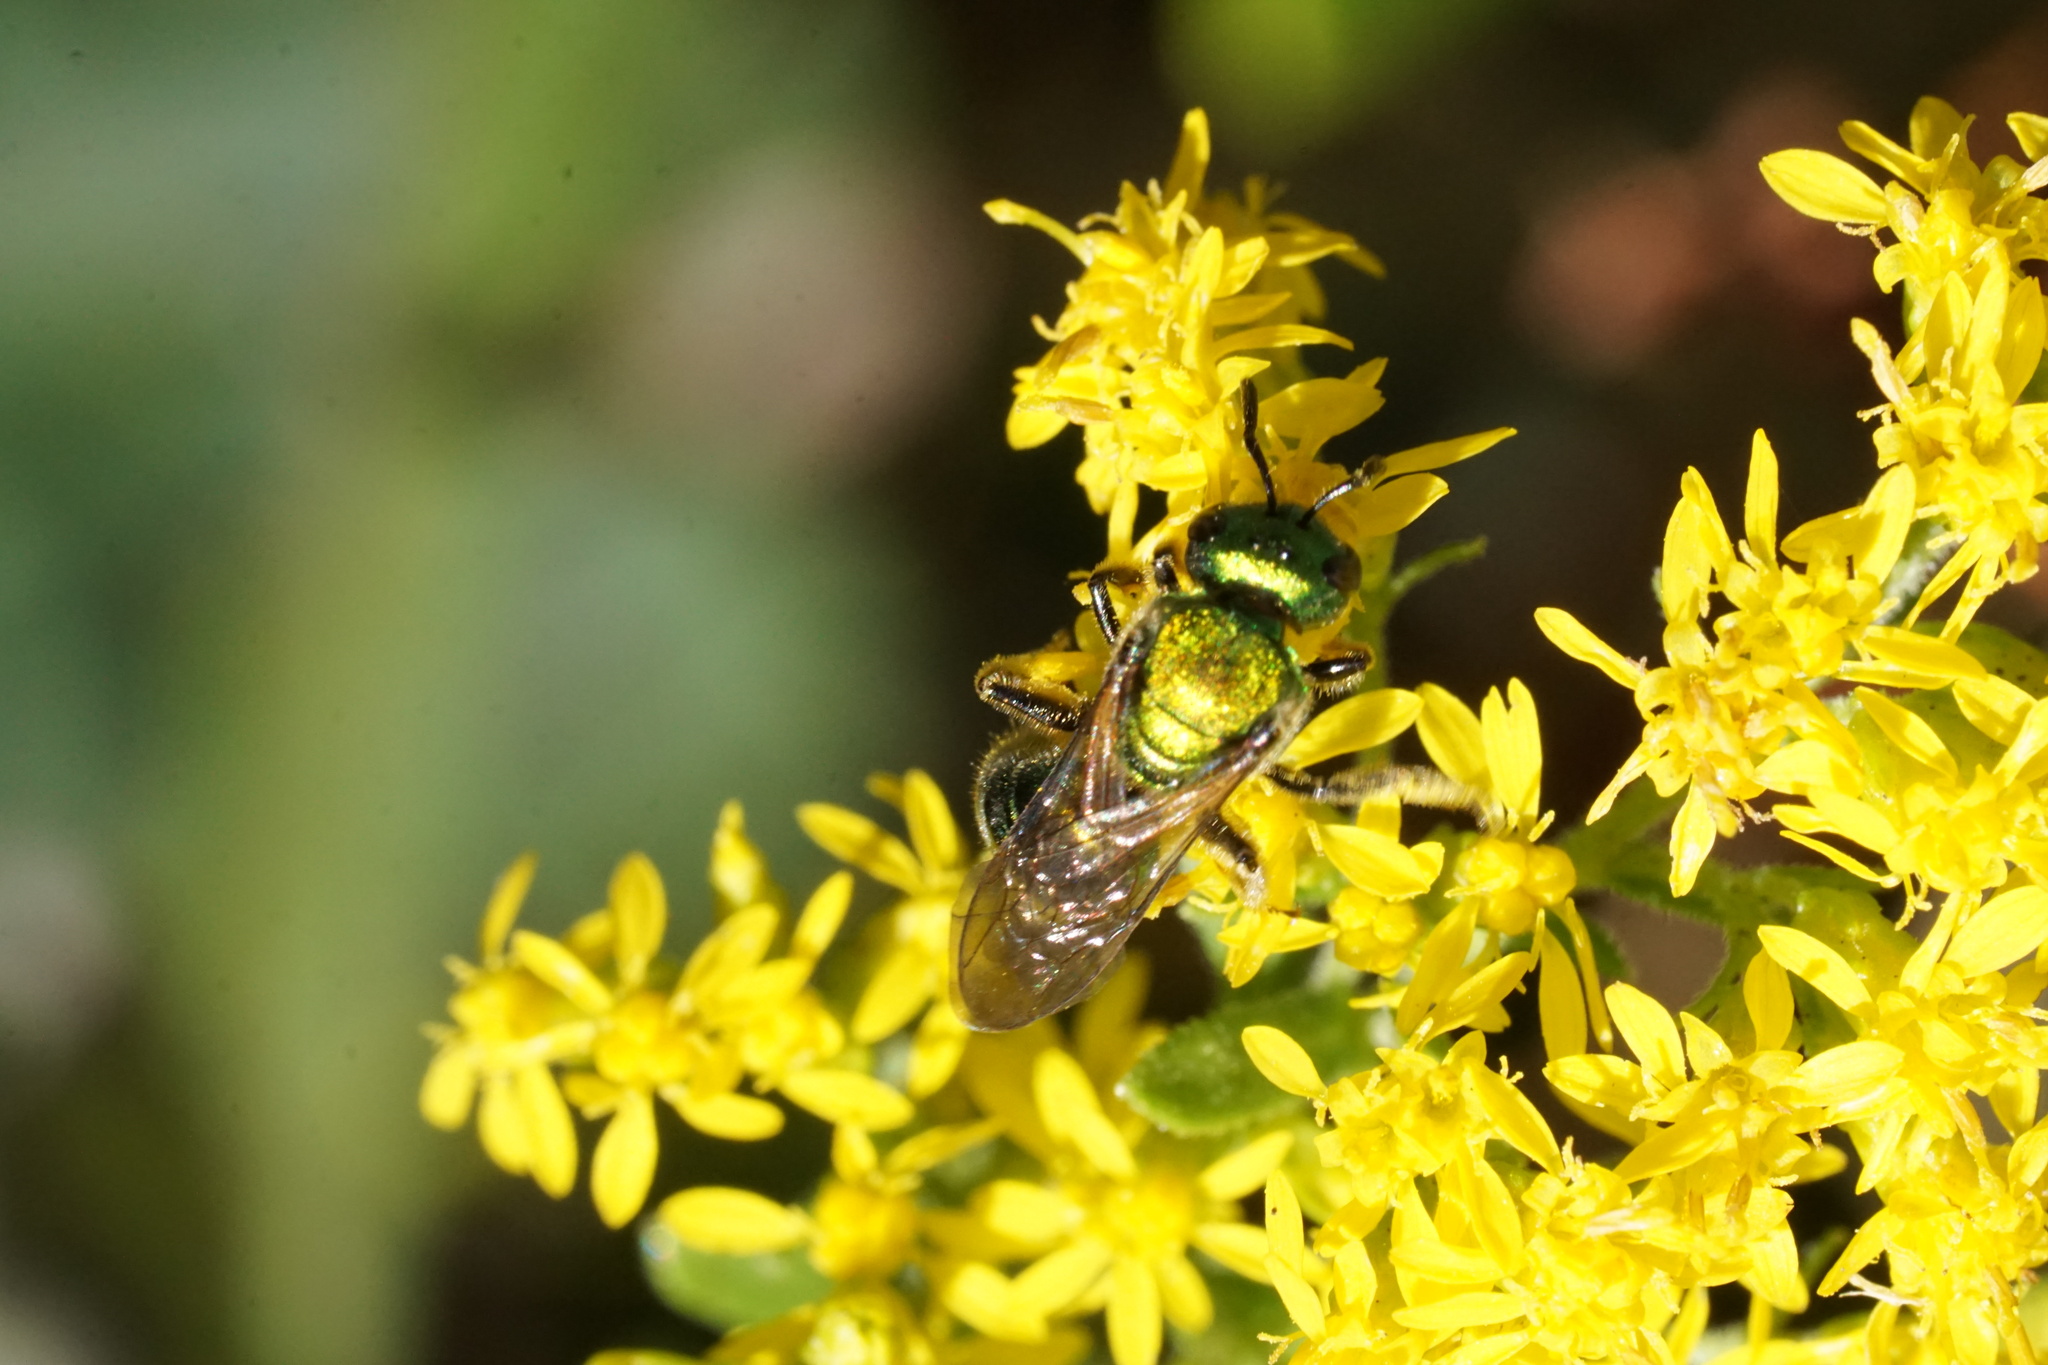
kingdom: Animalia
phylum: Arthropoda
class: Insecta
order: Hymenoptera
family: Halictidae
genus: Augochlora
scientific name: Augochlora pura
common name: Pure green sweat bee
